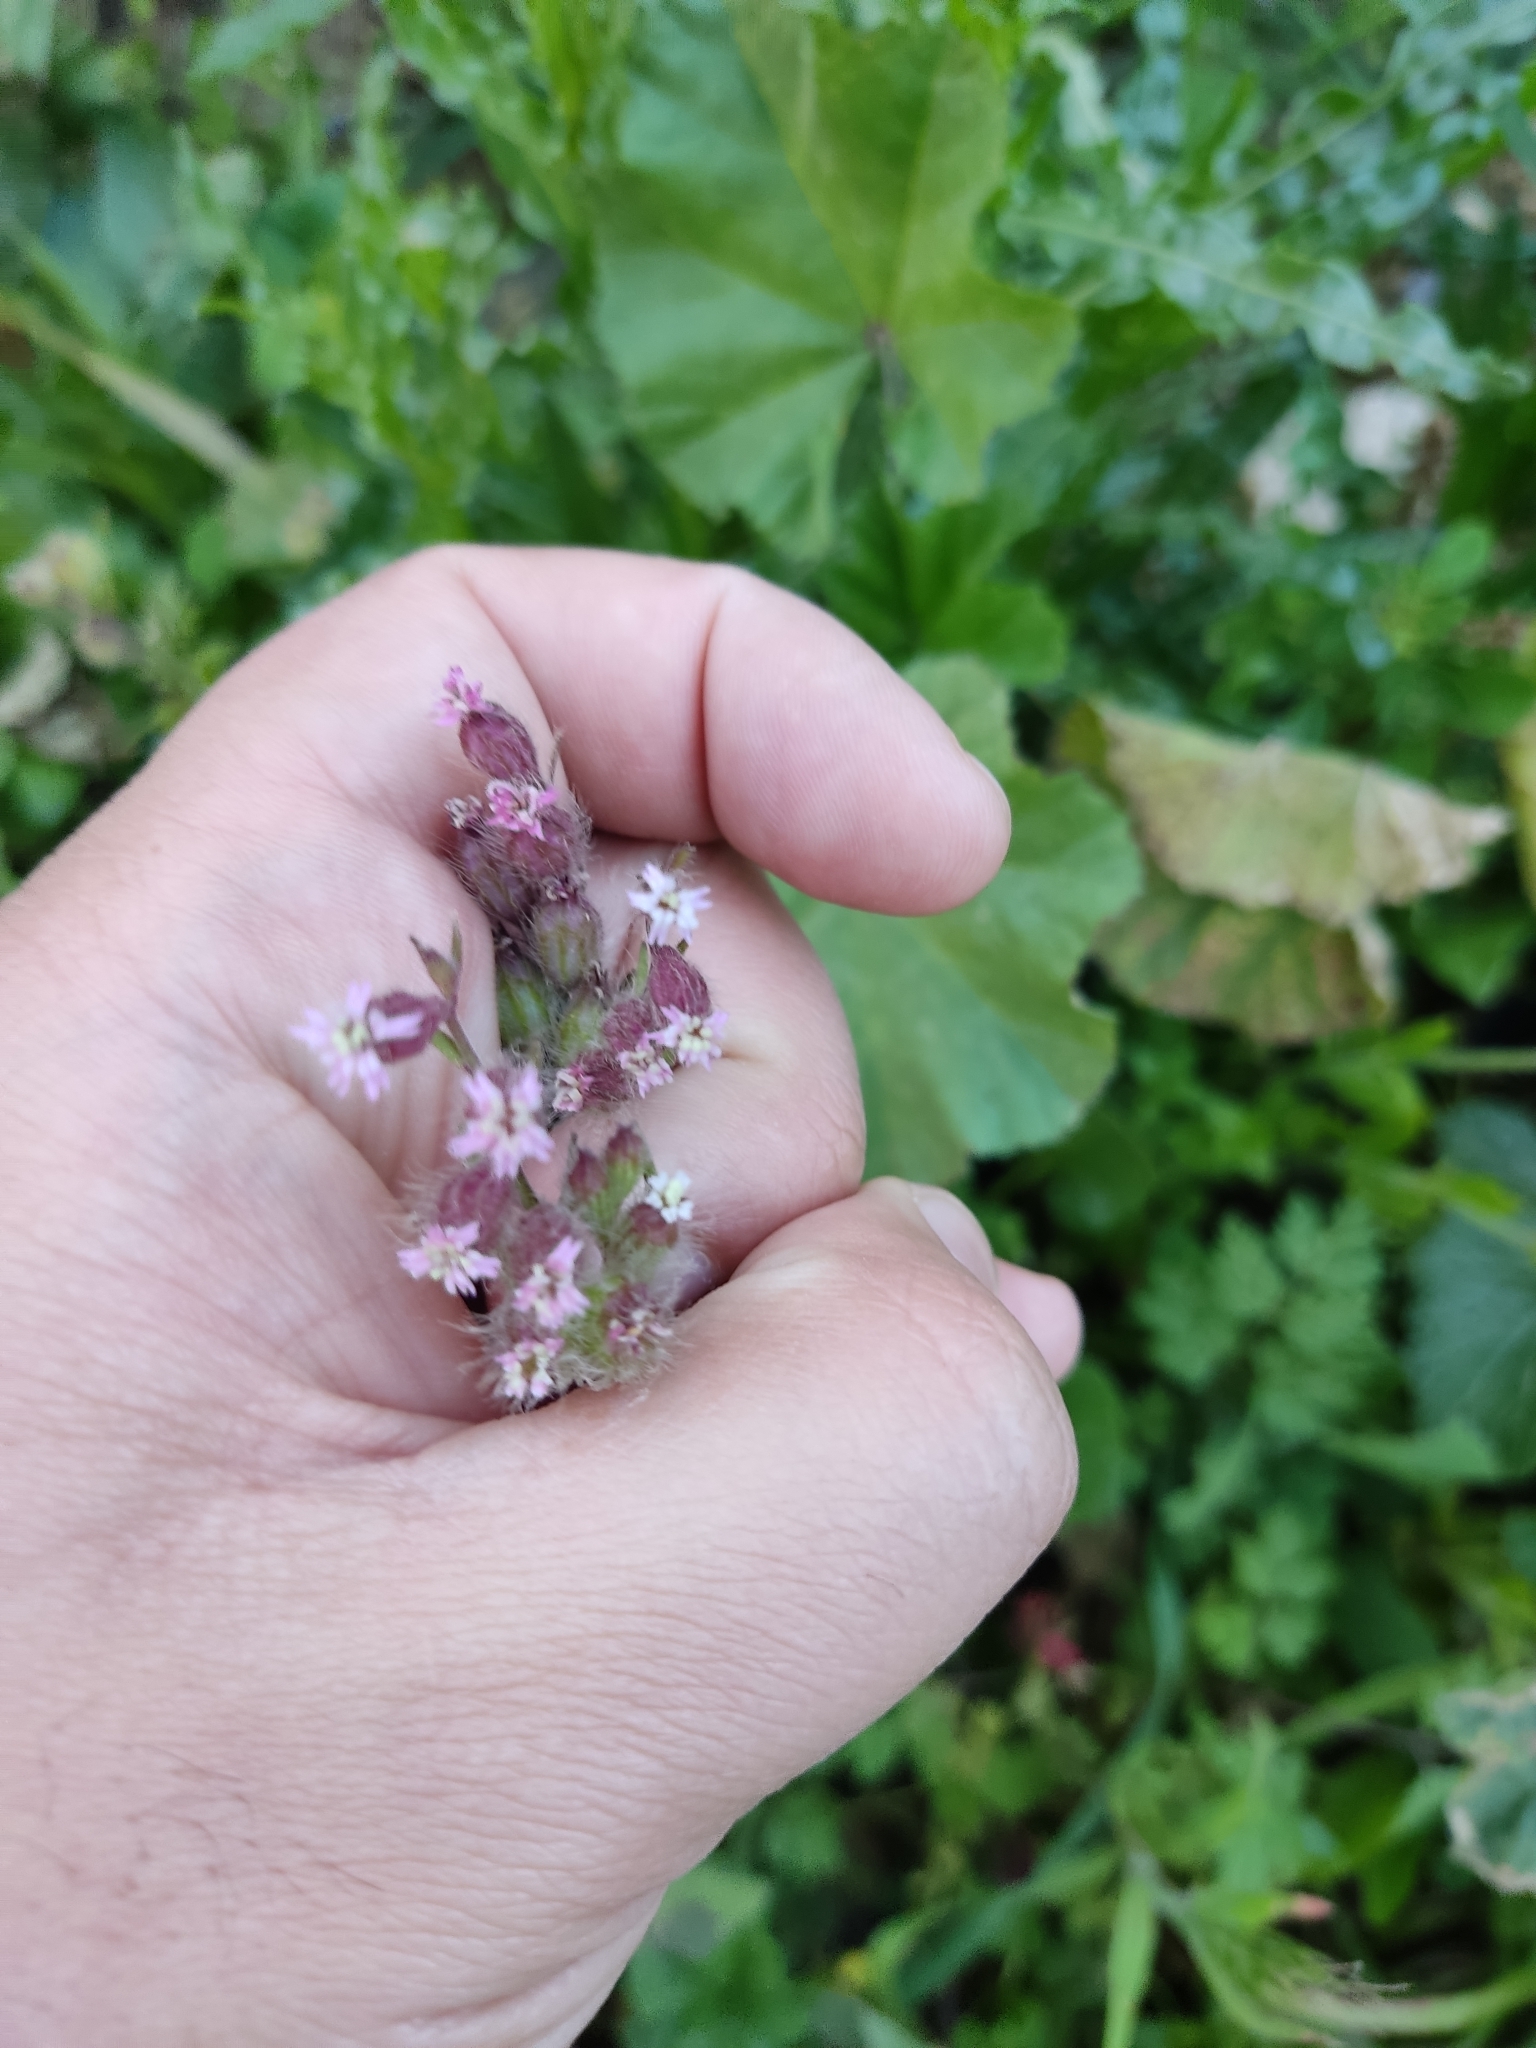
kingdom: Plantae
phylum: Tracheophyta
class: Magnoliopsida
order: Caryophyllales
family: Caryophyllaceae
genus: Silene
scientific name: Silene disticha
